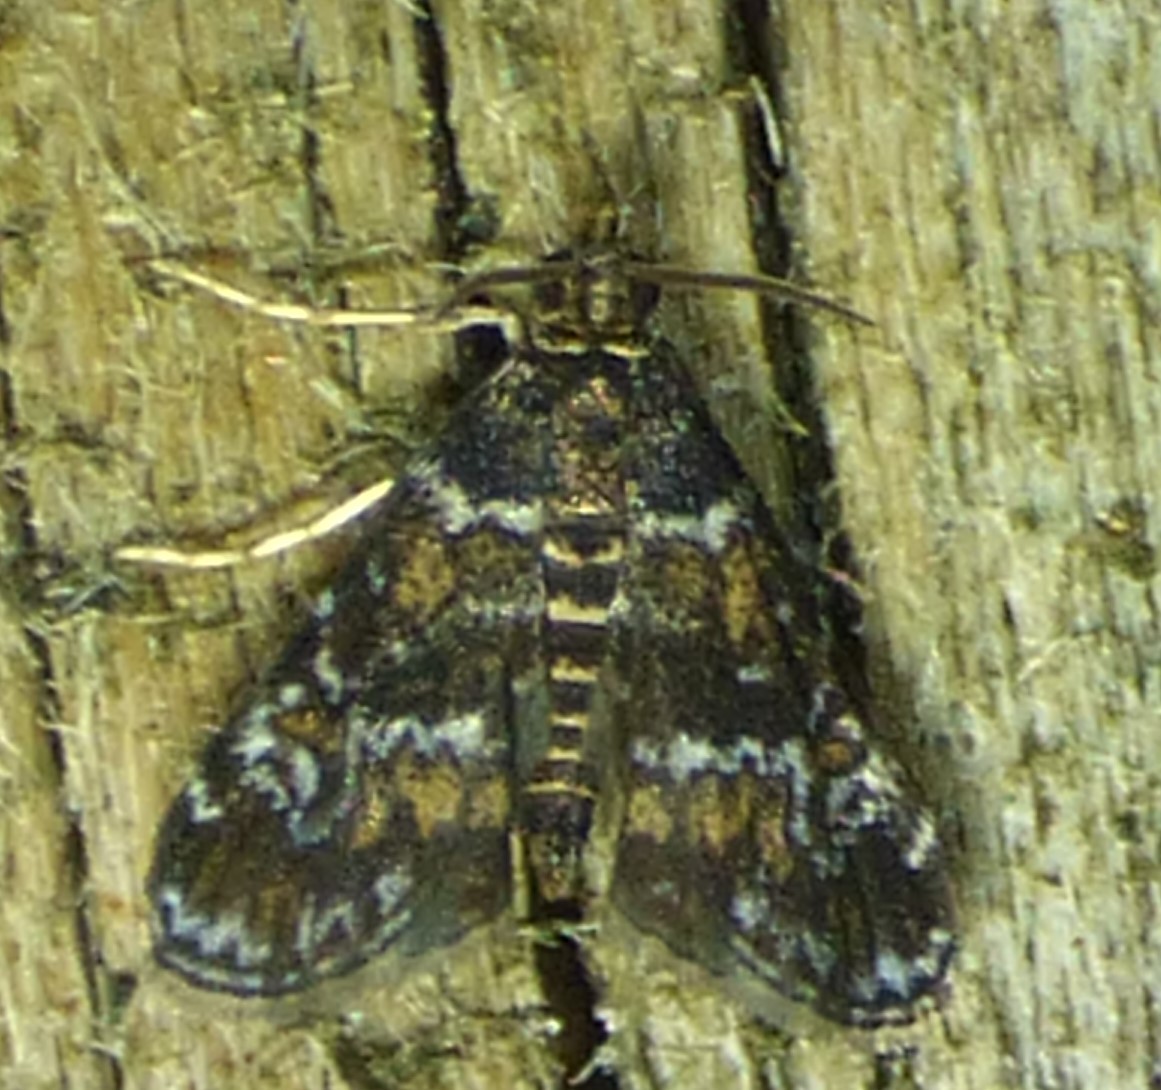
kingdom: Animalia
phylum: Arthropoda
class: Insecta
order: Lepidoptera
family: Crambidae
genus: Elophila
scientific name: Elophila obliteralis
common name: Waterlily leafcutter moth
